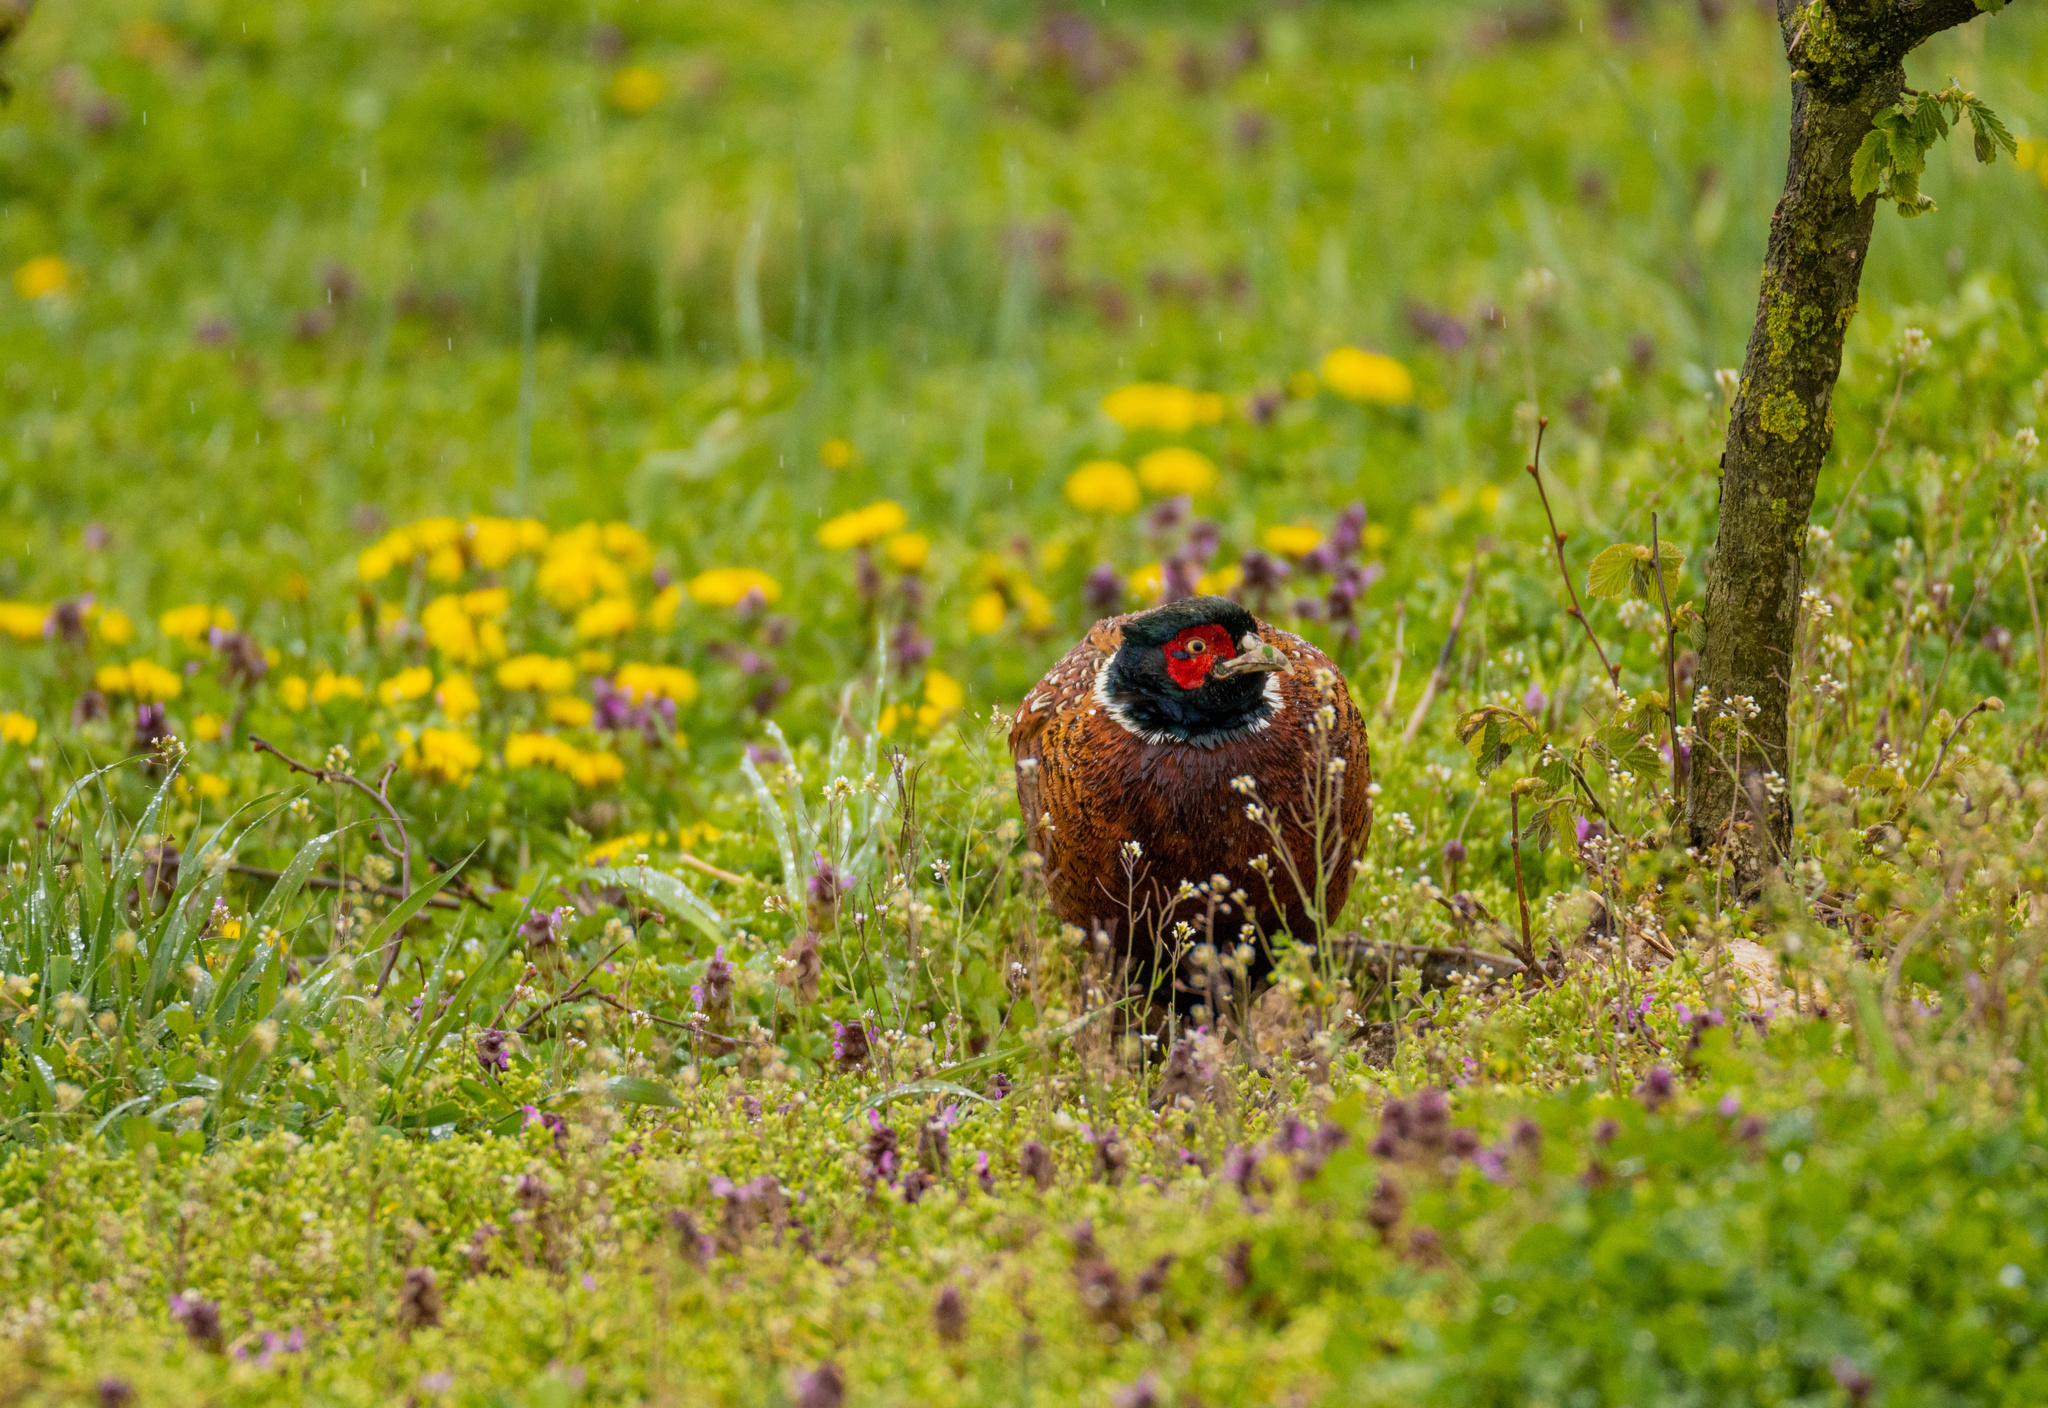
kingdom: Animalia
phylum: Chordata
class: Aves
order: Galliformes
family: Phasianidae
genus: Phasianus
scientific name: Phasianus colchicus
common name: Common pheasant
